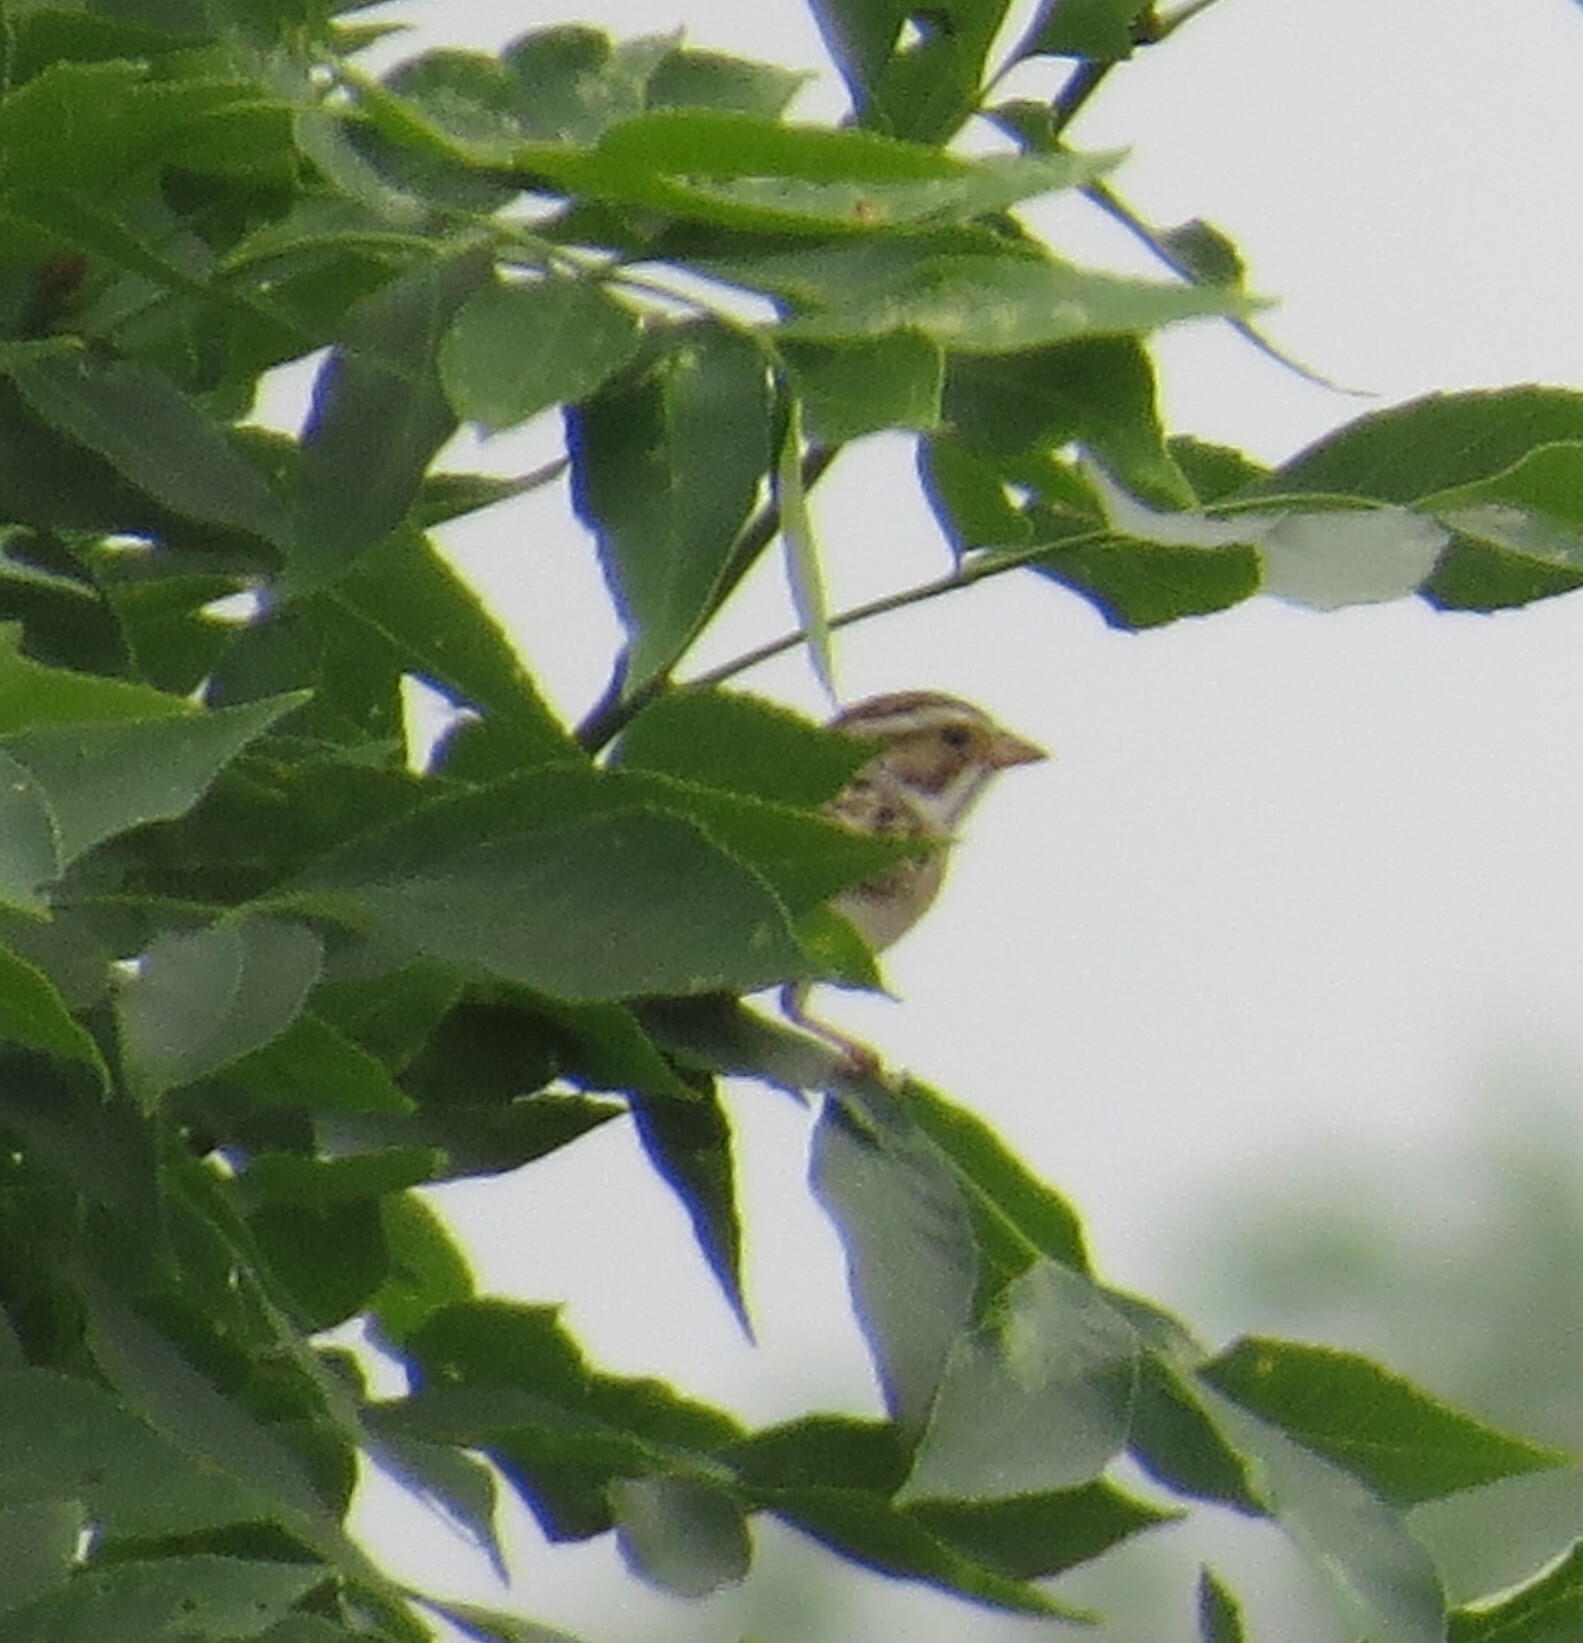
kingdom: Animalia
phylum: Chordata
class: Aves
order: Passeriformes
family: Passerellidae
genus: Spizella
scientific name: Spizella pallida
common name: Clay-colored sparrow
